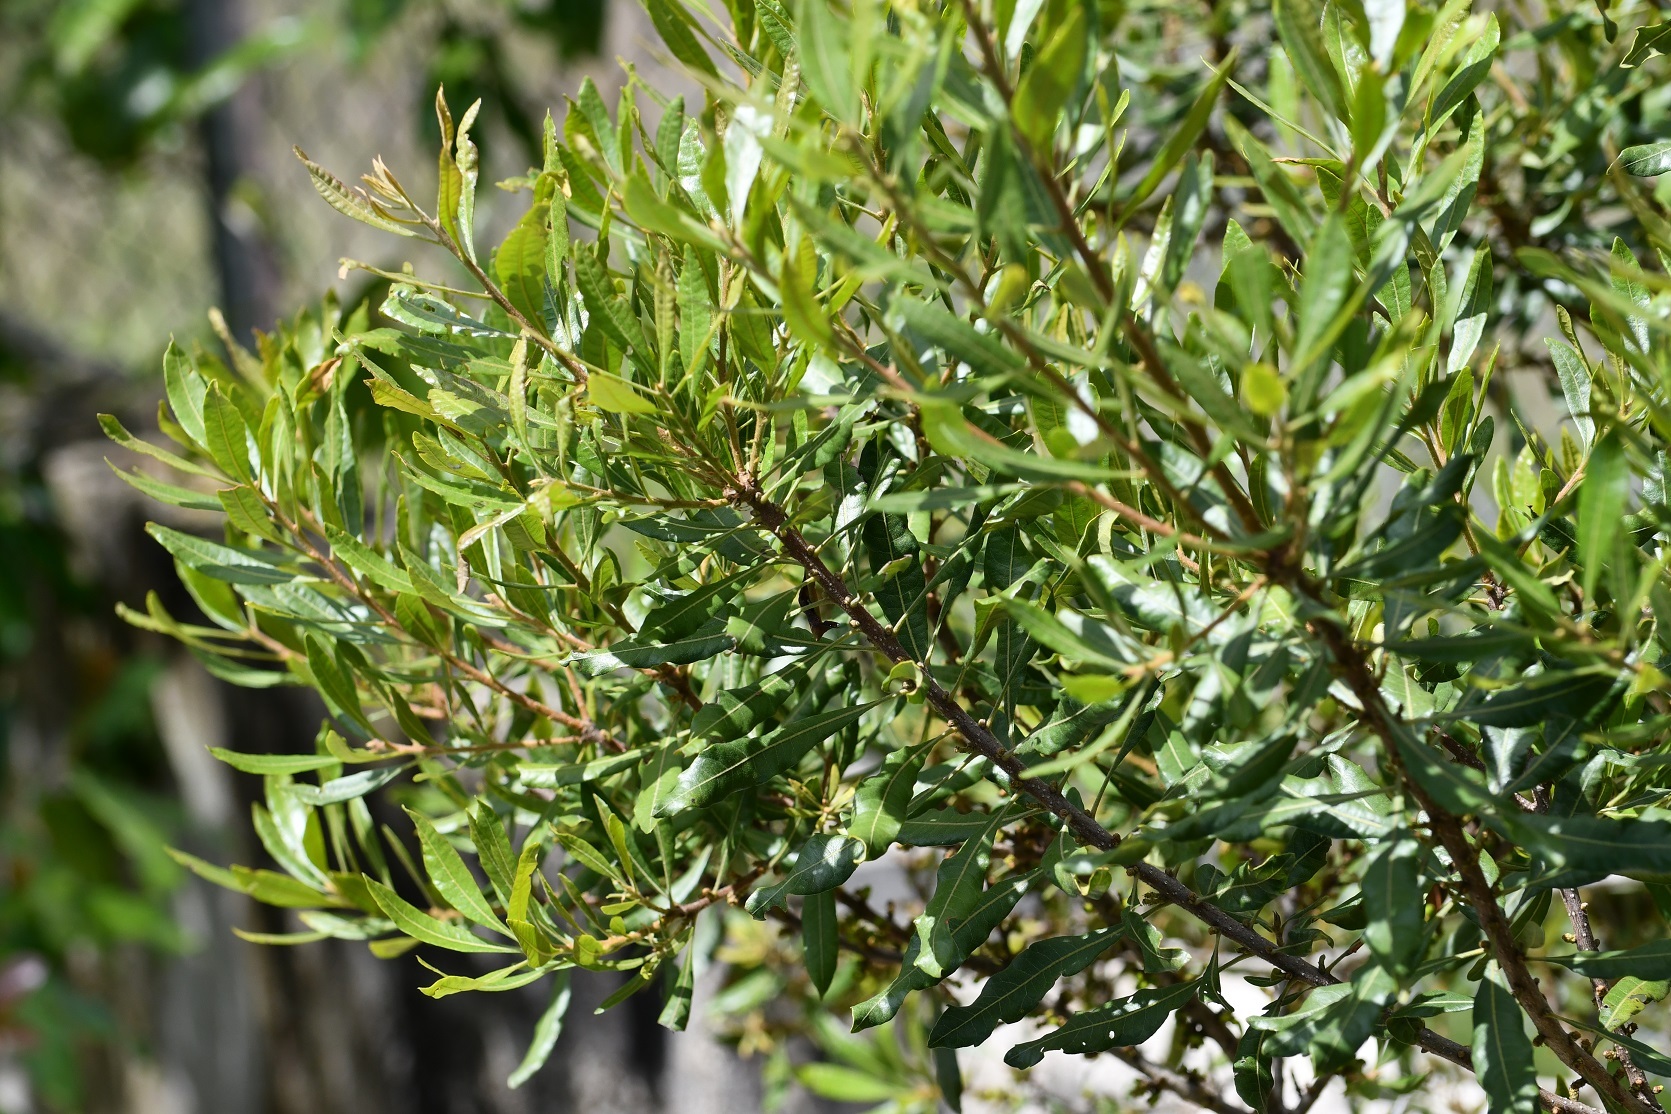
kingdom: Plantae
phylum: Tracheophyta
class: Magnoliopsida
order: Fagales
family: Myricaceae
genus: Morella
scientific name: Morella cerifera
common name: Wax myrtle
